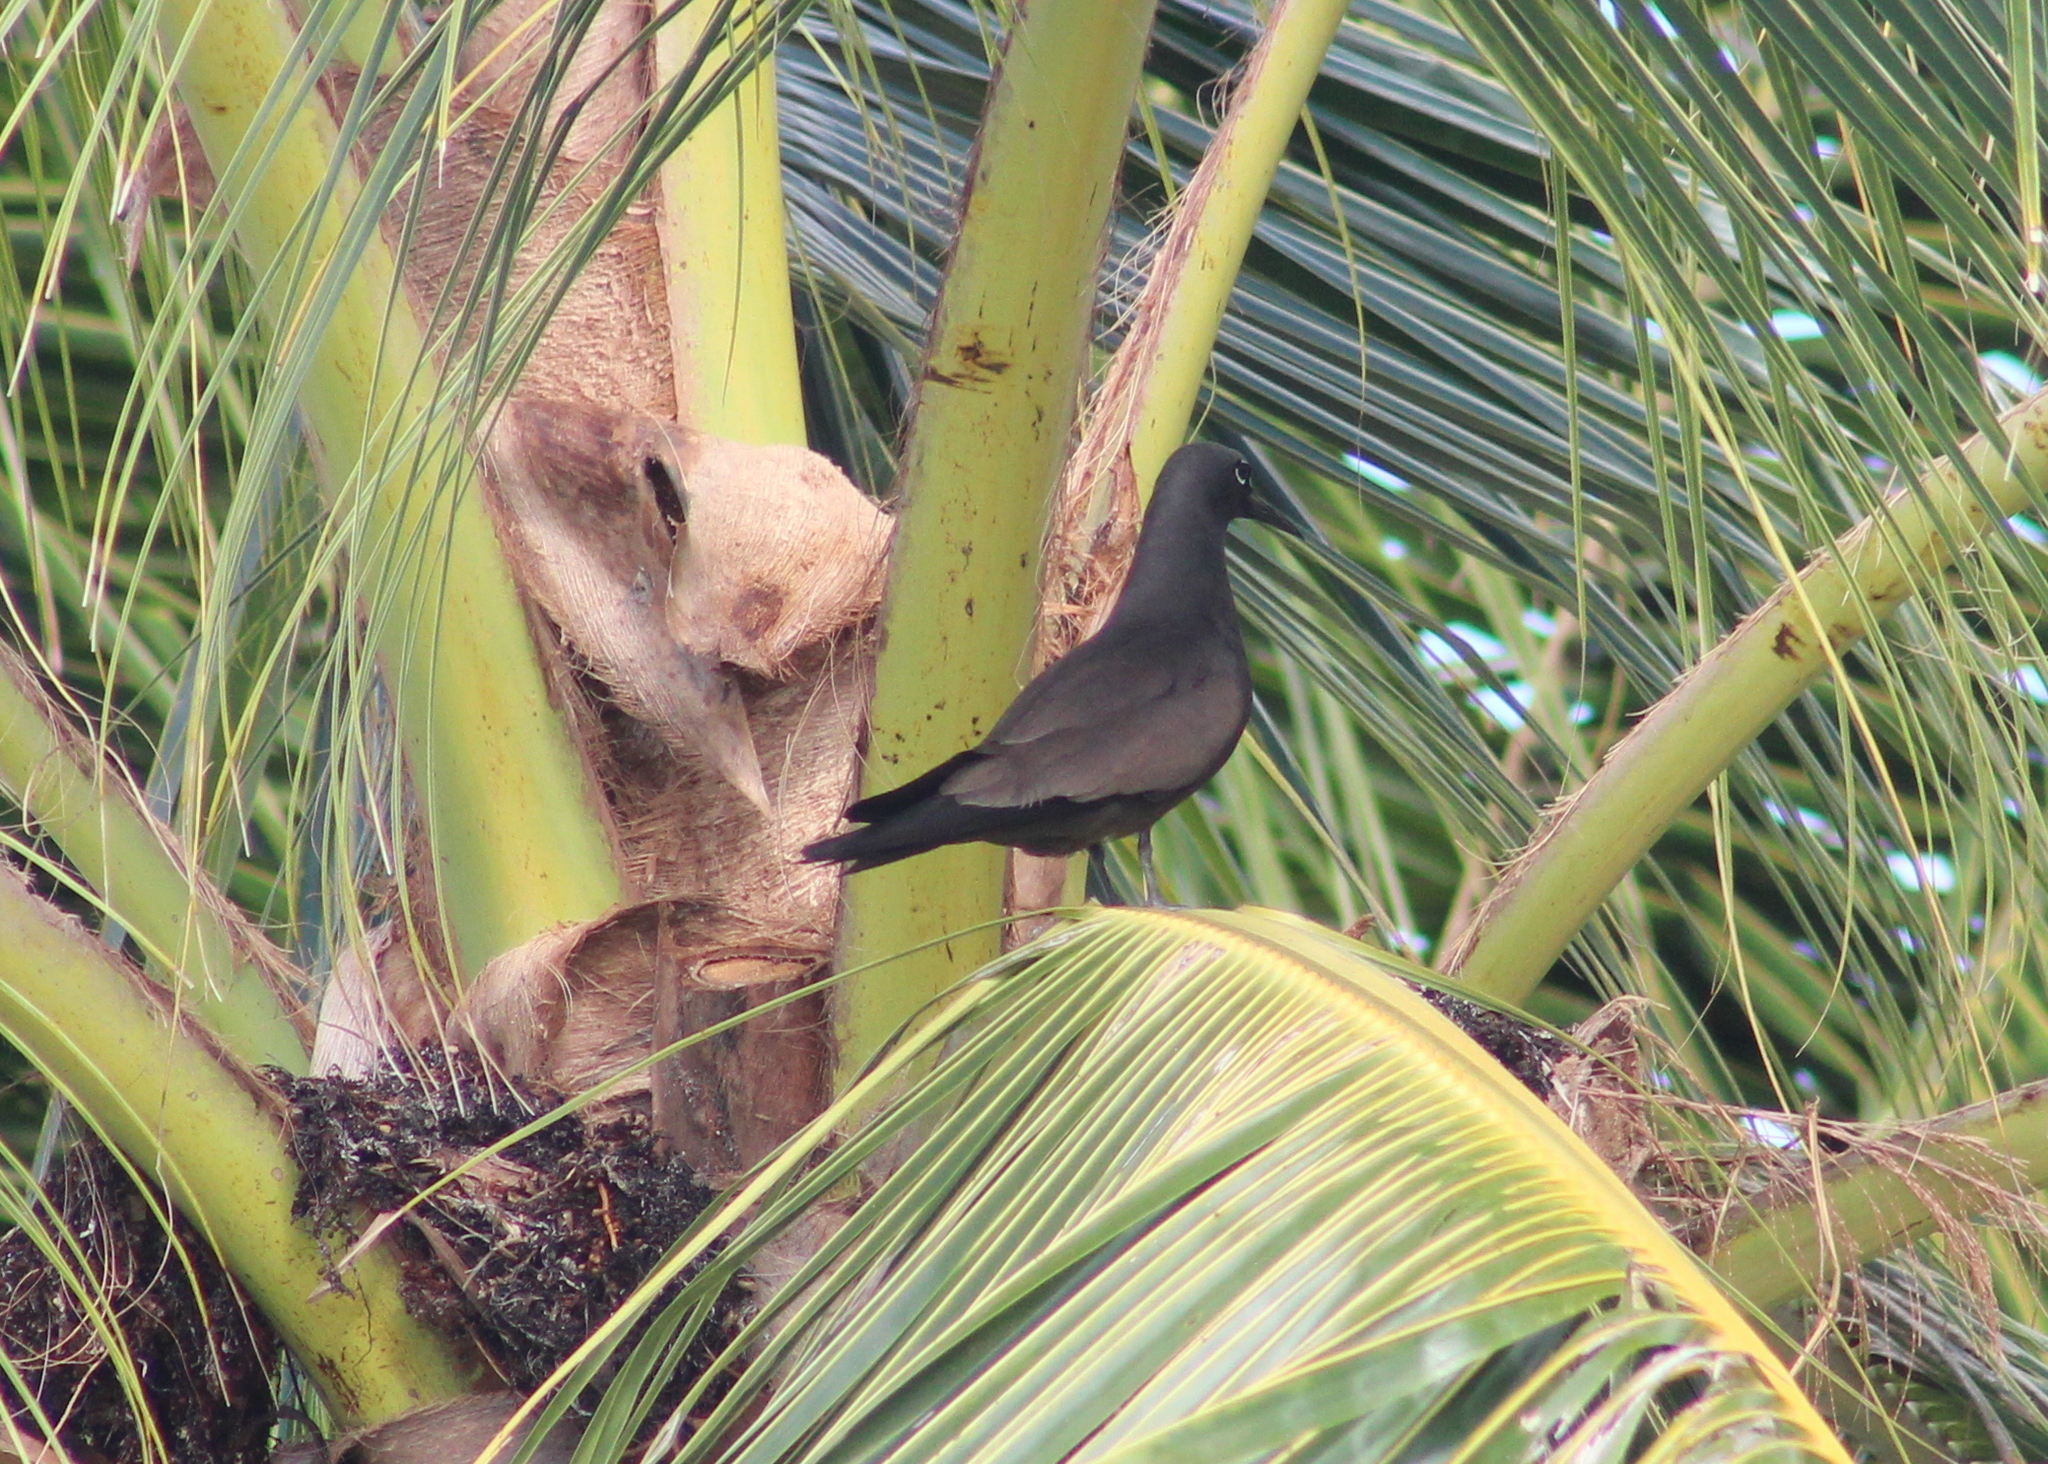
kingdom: Animalia
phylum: Chordata
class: Aves
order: Charadriiformes
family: Laridae
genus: Anous
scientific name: Anous stolidus
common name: Brown noddy
